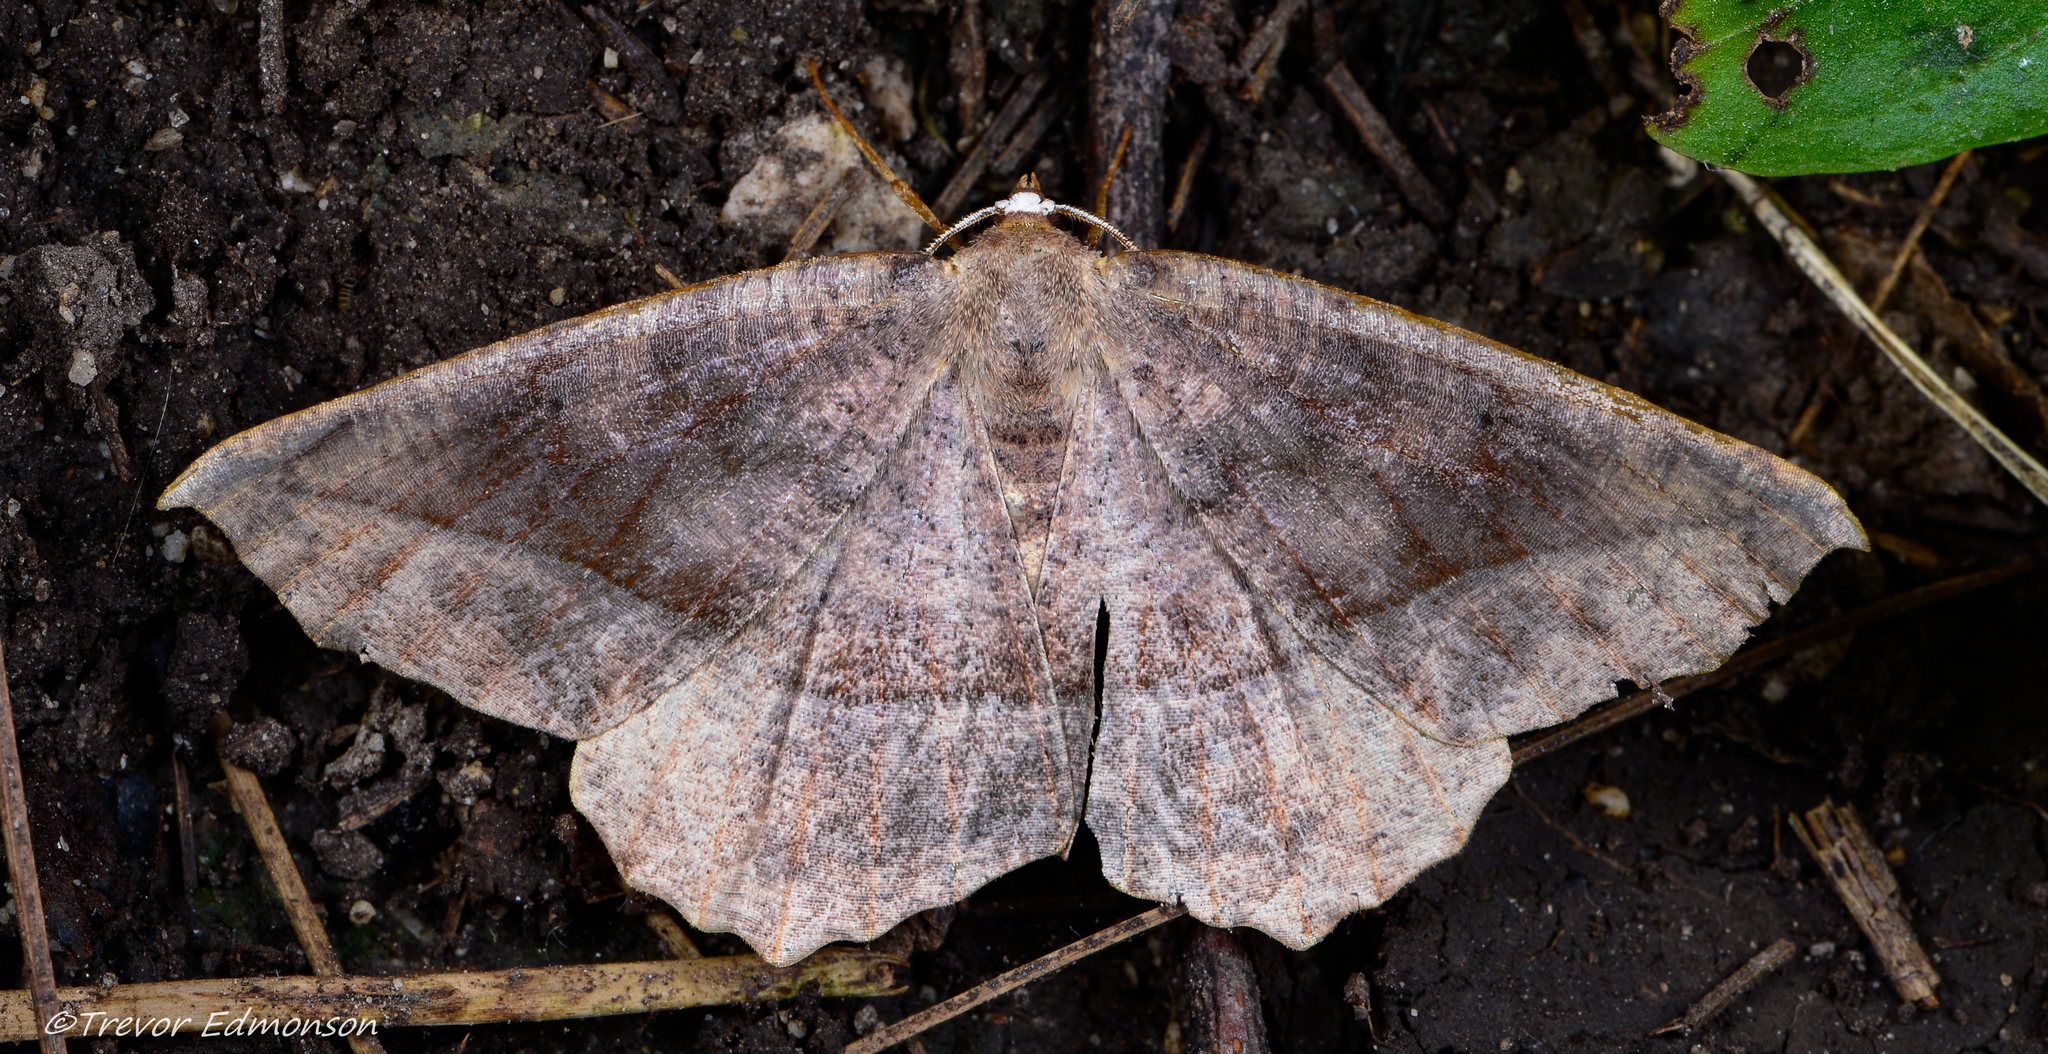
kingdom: Animalia
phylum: Arthropoda
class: Insecta
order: Lepidoptera
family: Geometridae
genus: Eutrapela
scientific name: Eutrapela clemataria
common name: Curved-toothed geometer
